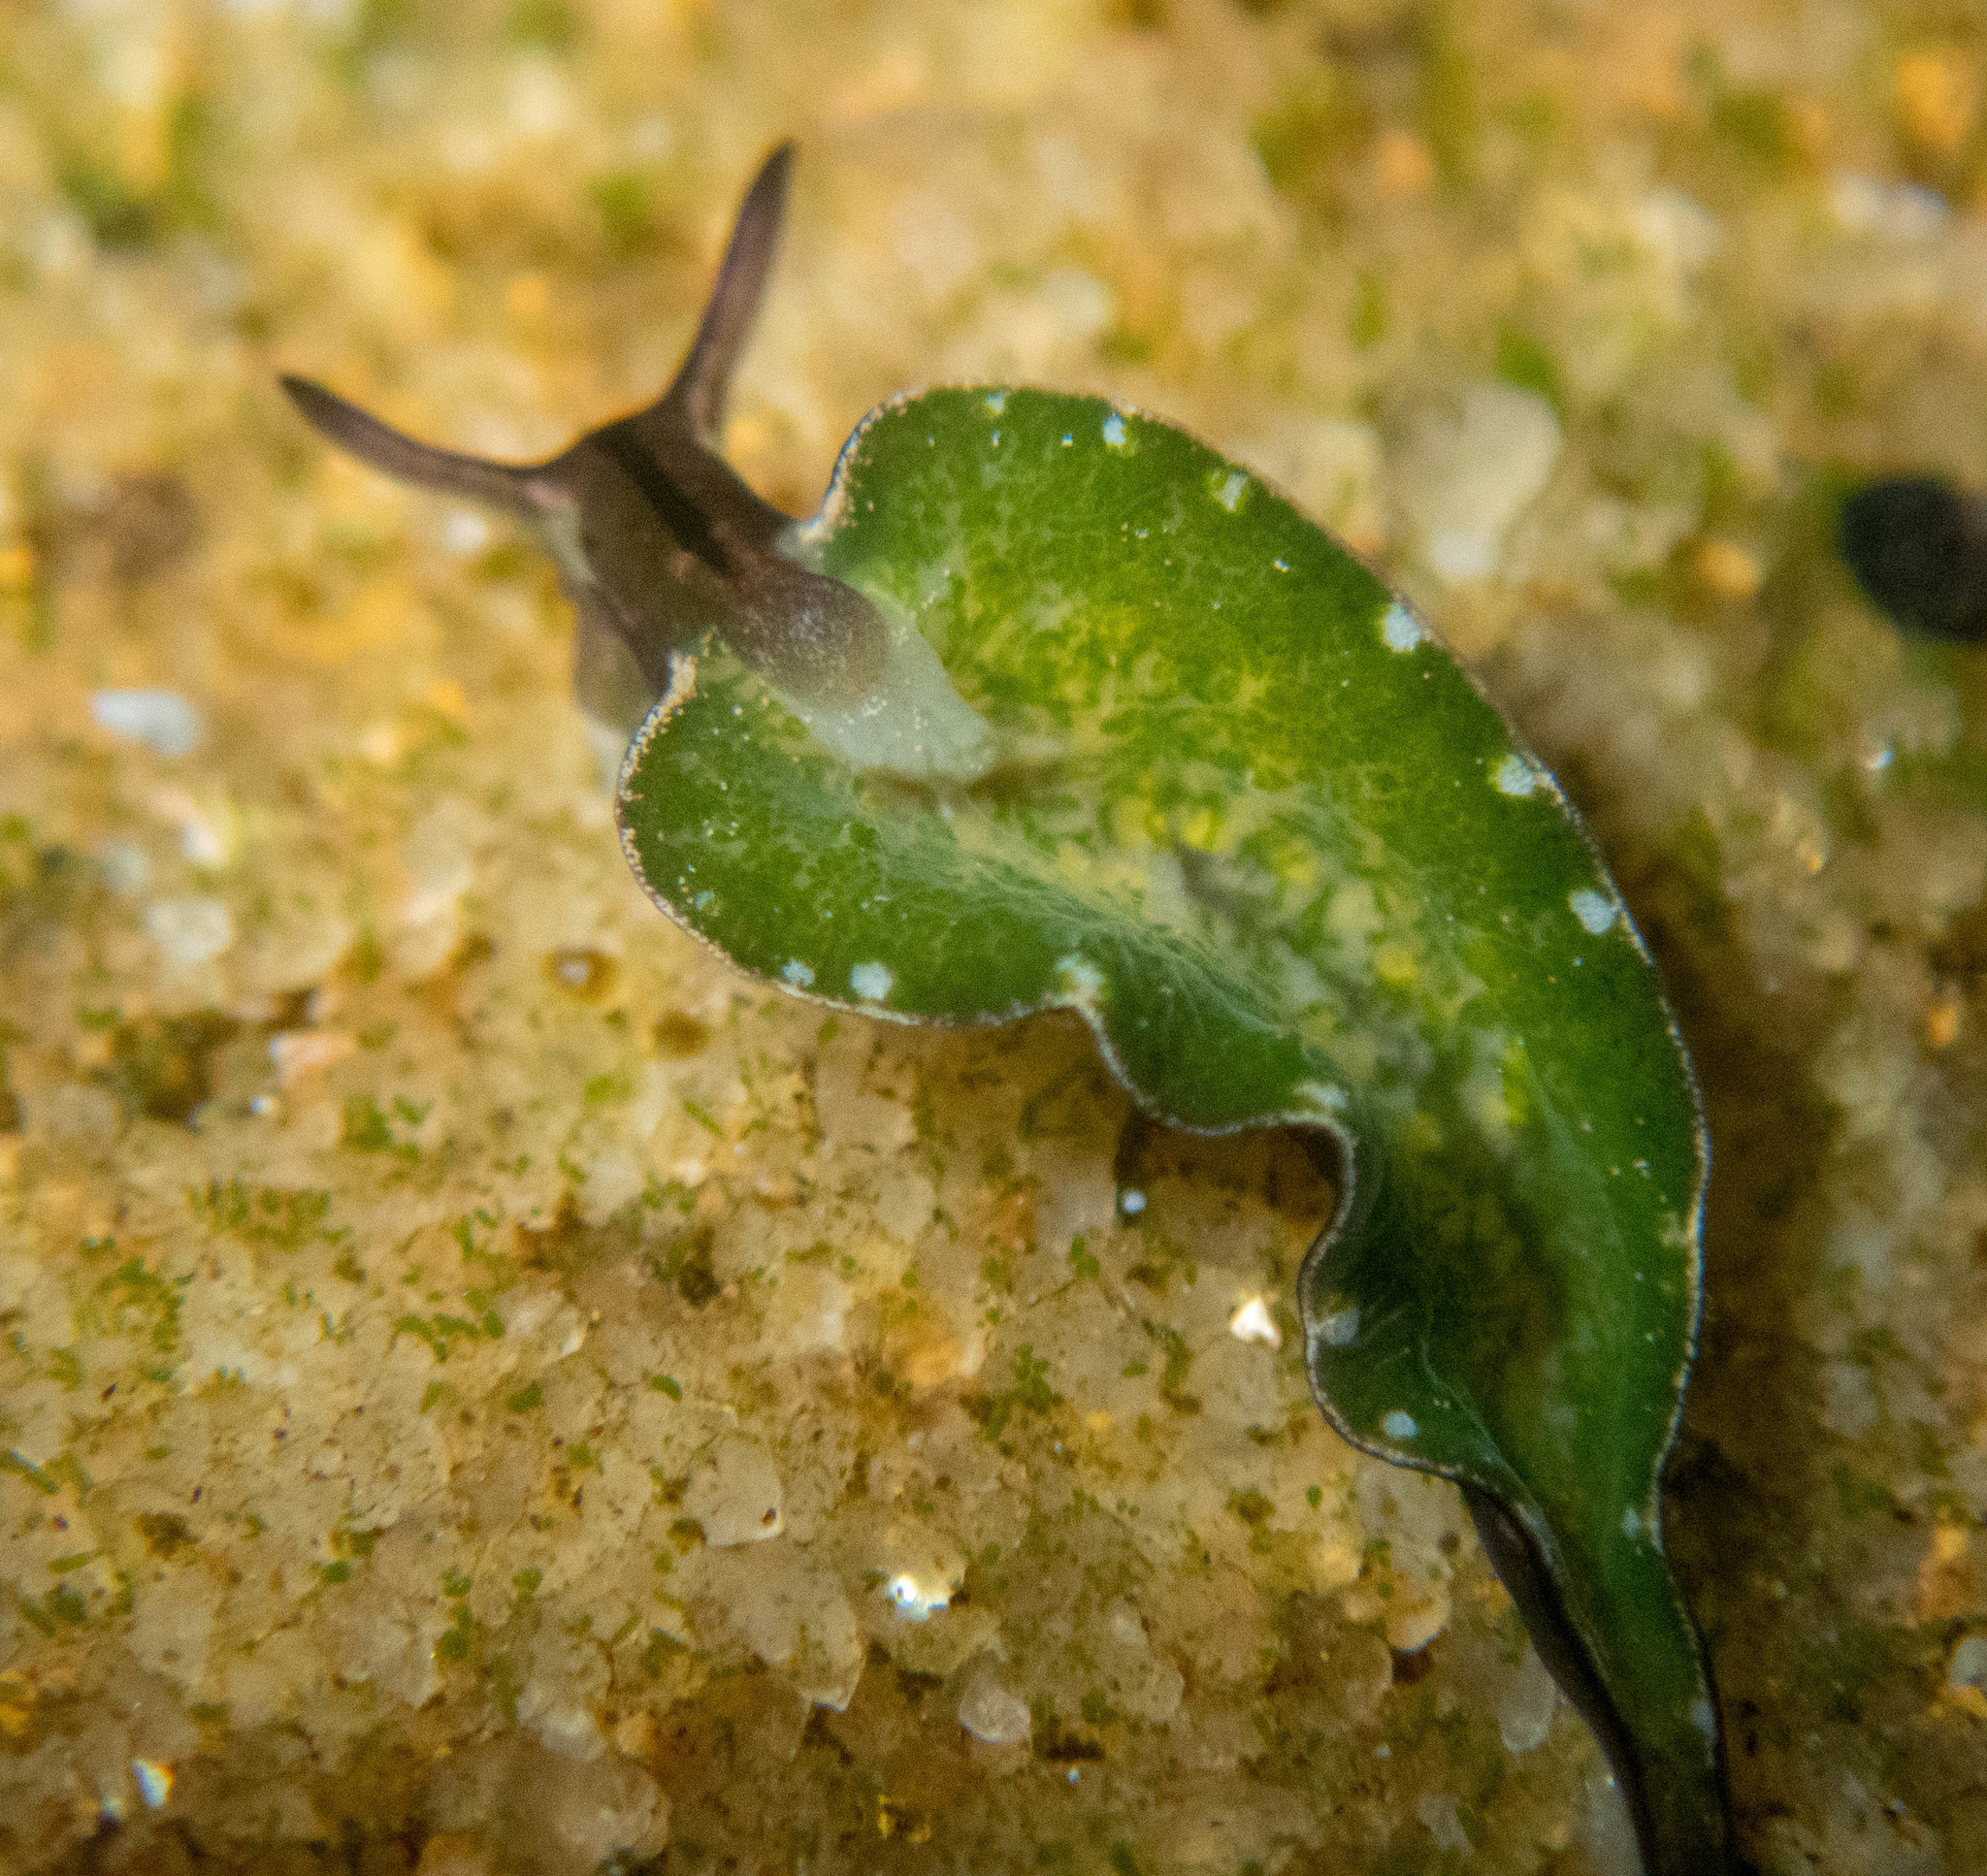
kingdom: Animalia
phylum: Mollusca
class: Gastropoda
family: Plakobranchidae
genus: Elysia
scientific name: Elysia coodgeensis
